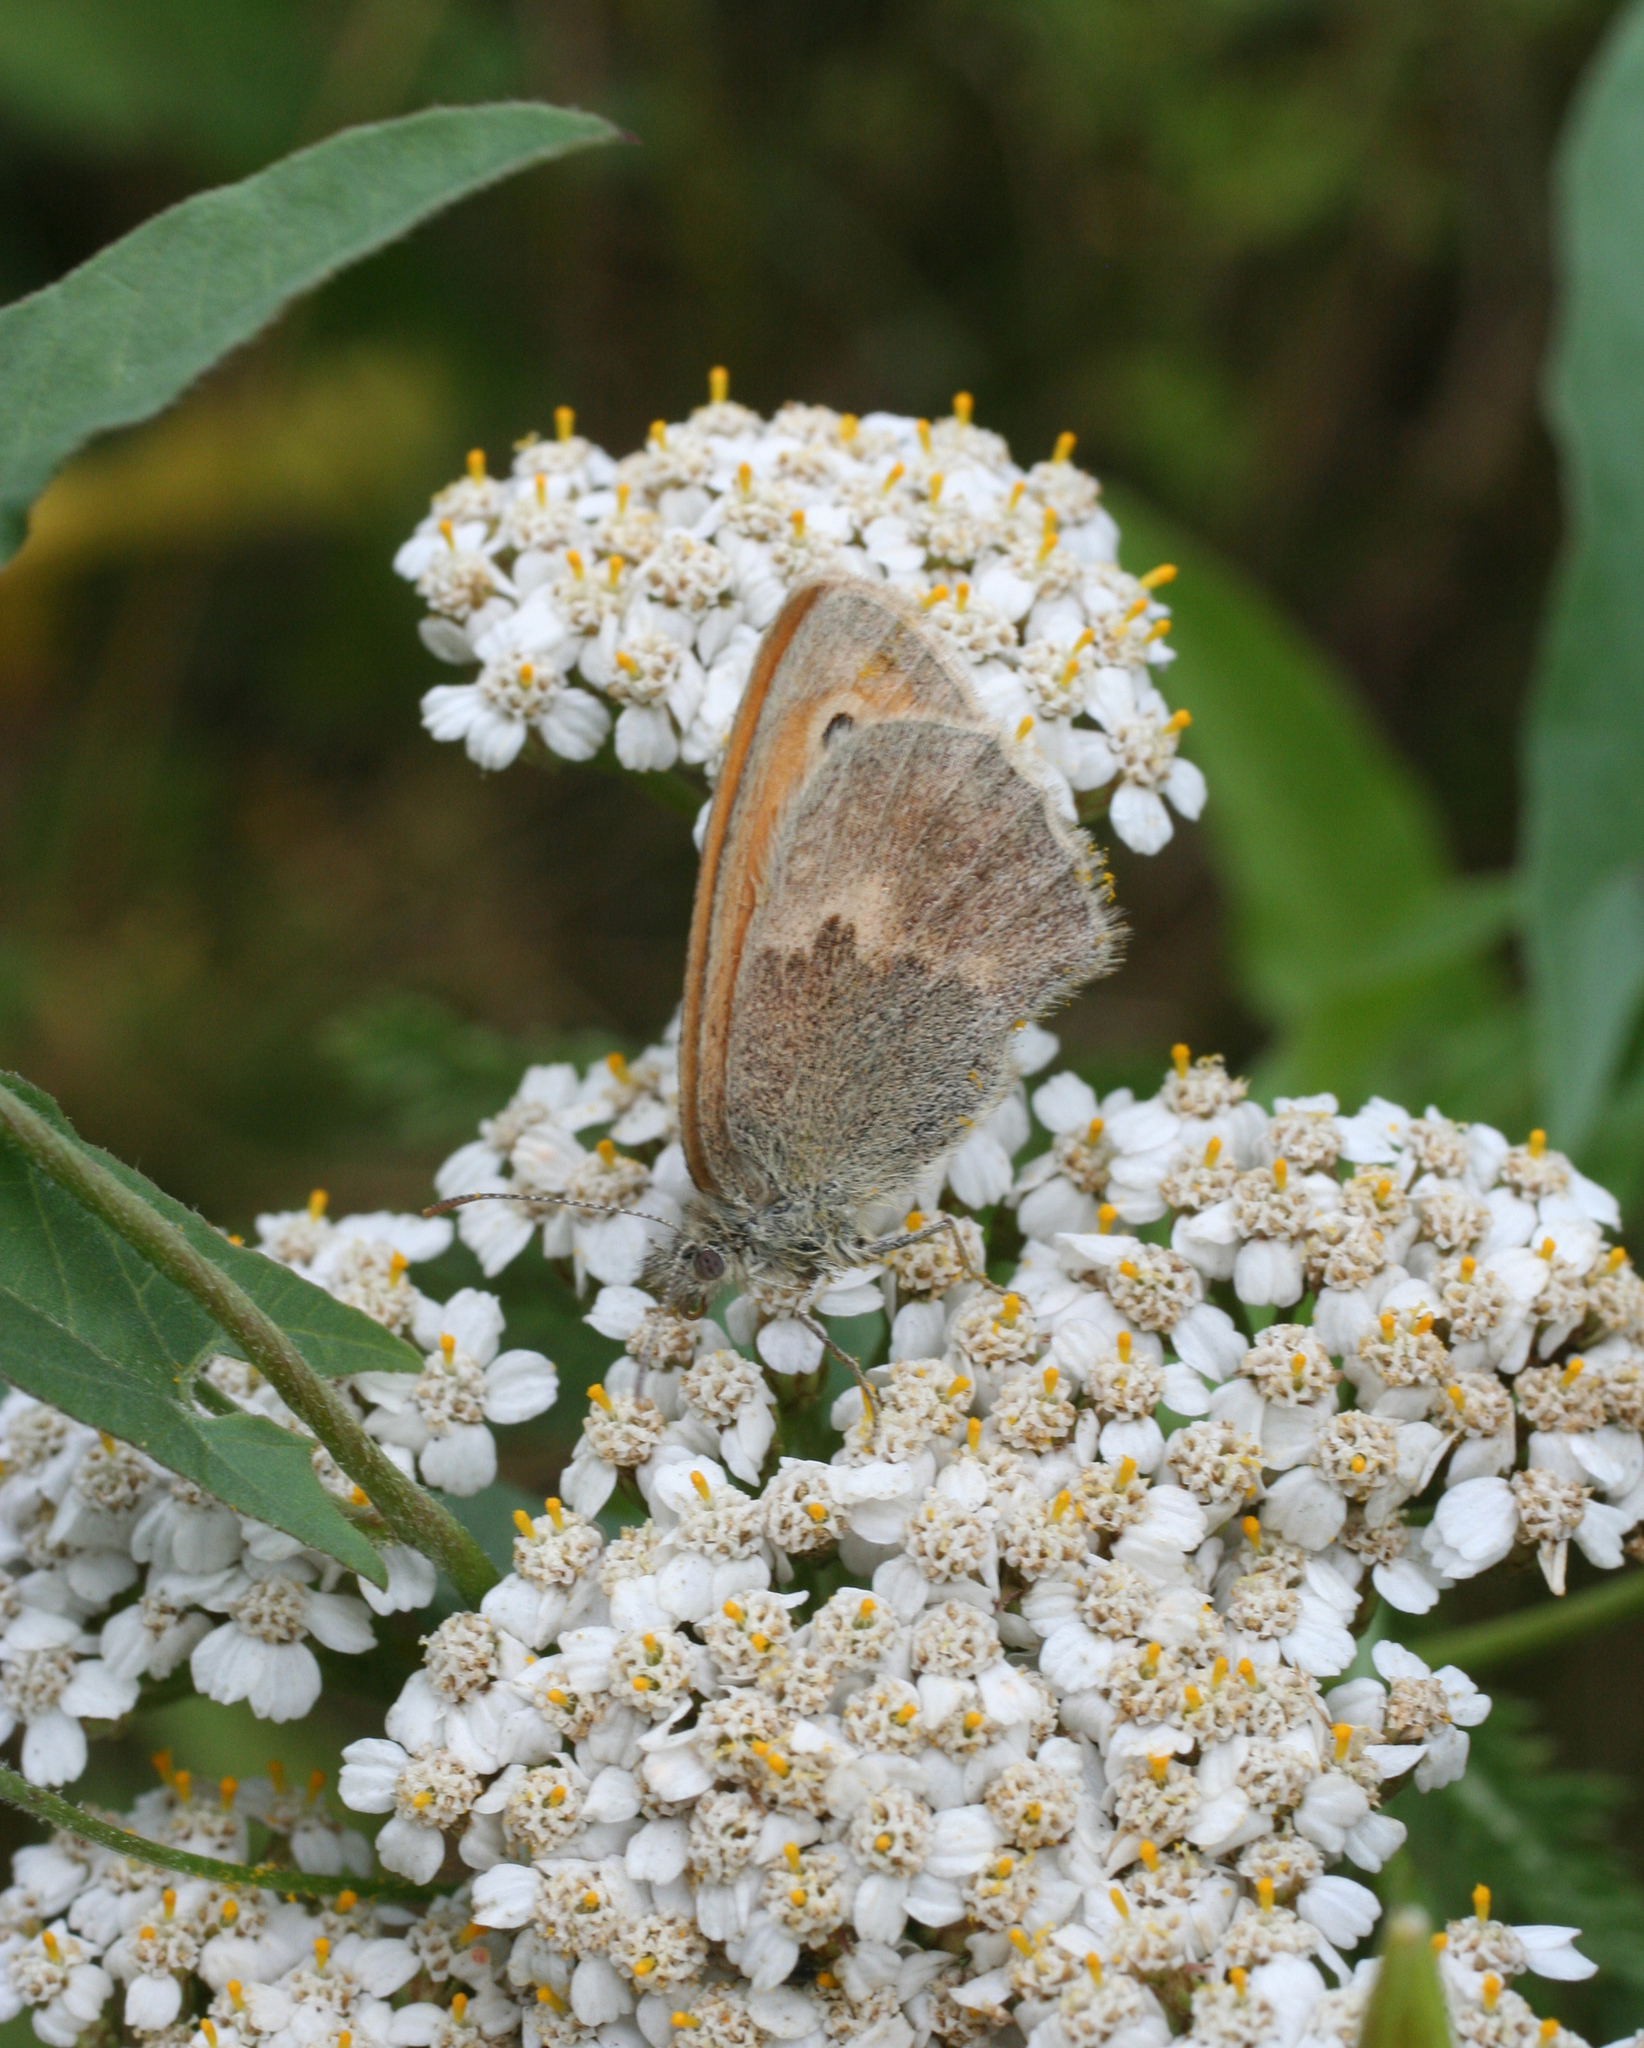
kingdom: Animalia
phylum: Arthropoda
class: Insecta
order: Lepidoptera
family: Nymphalidae
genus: Coenonympha
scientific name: Coenonympha pamphilus
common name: Small heath
